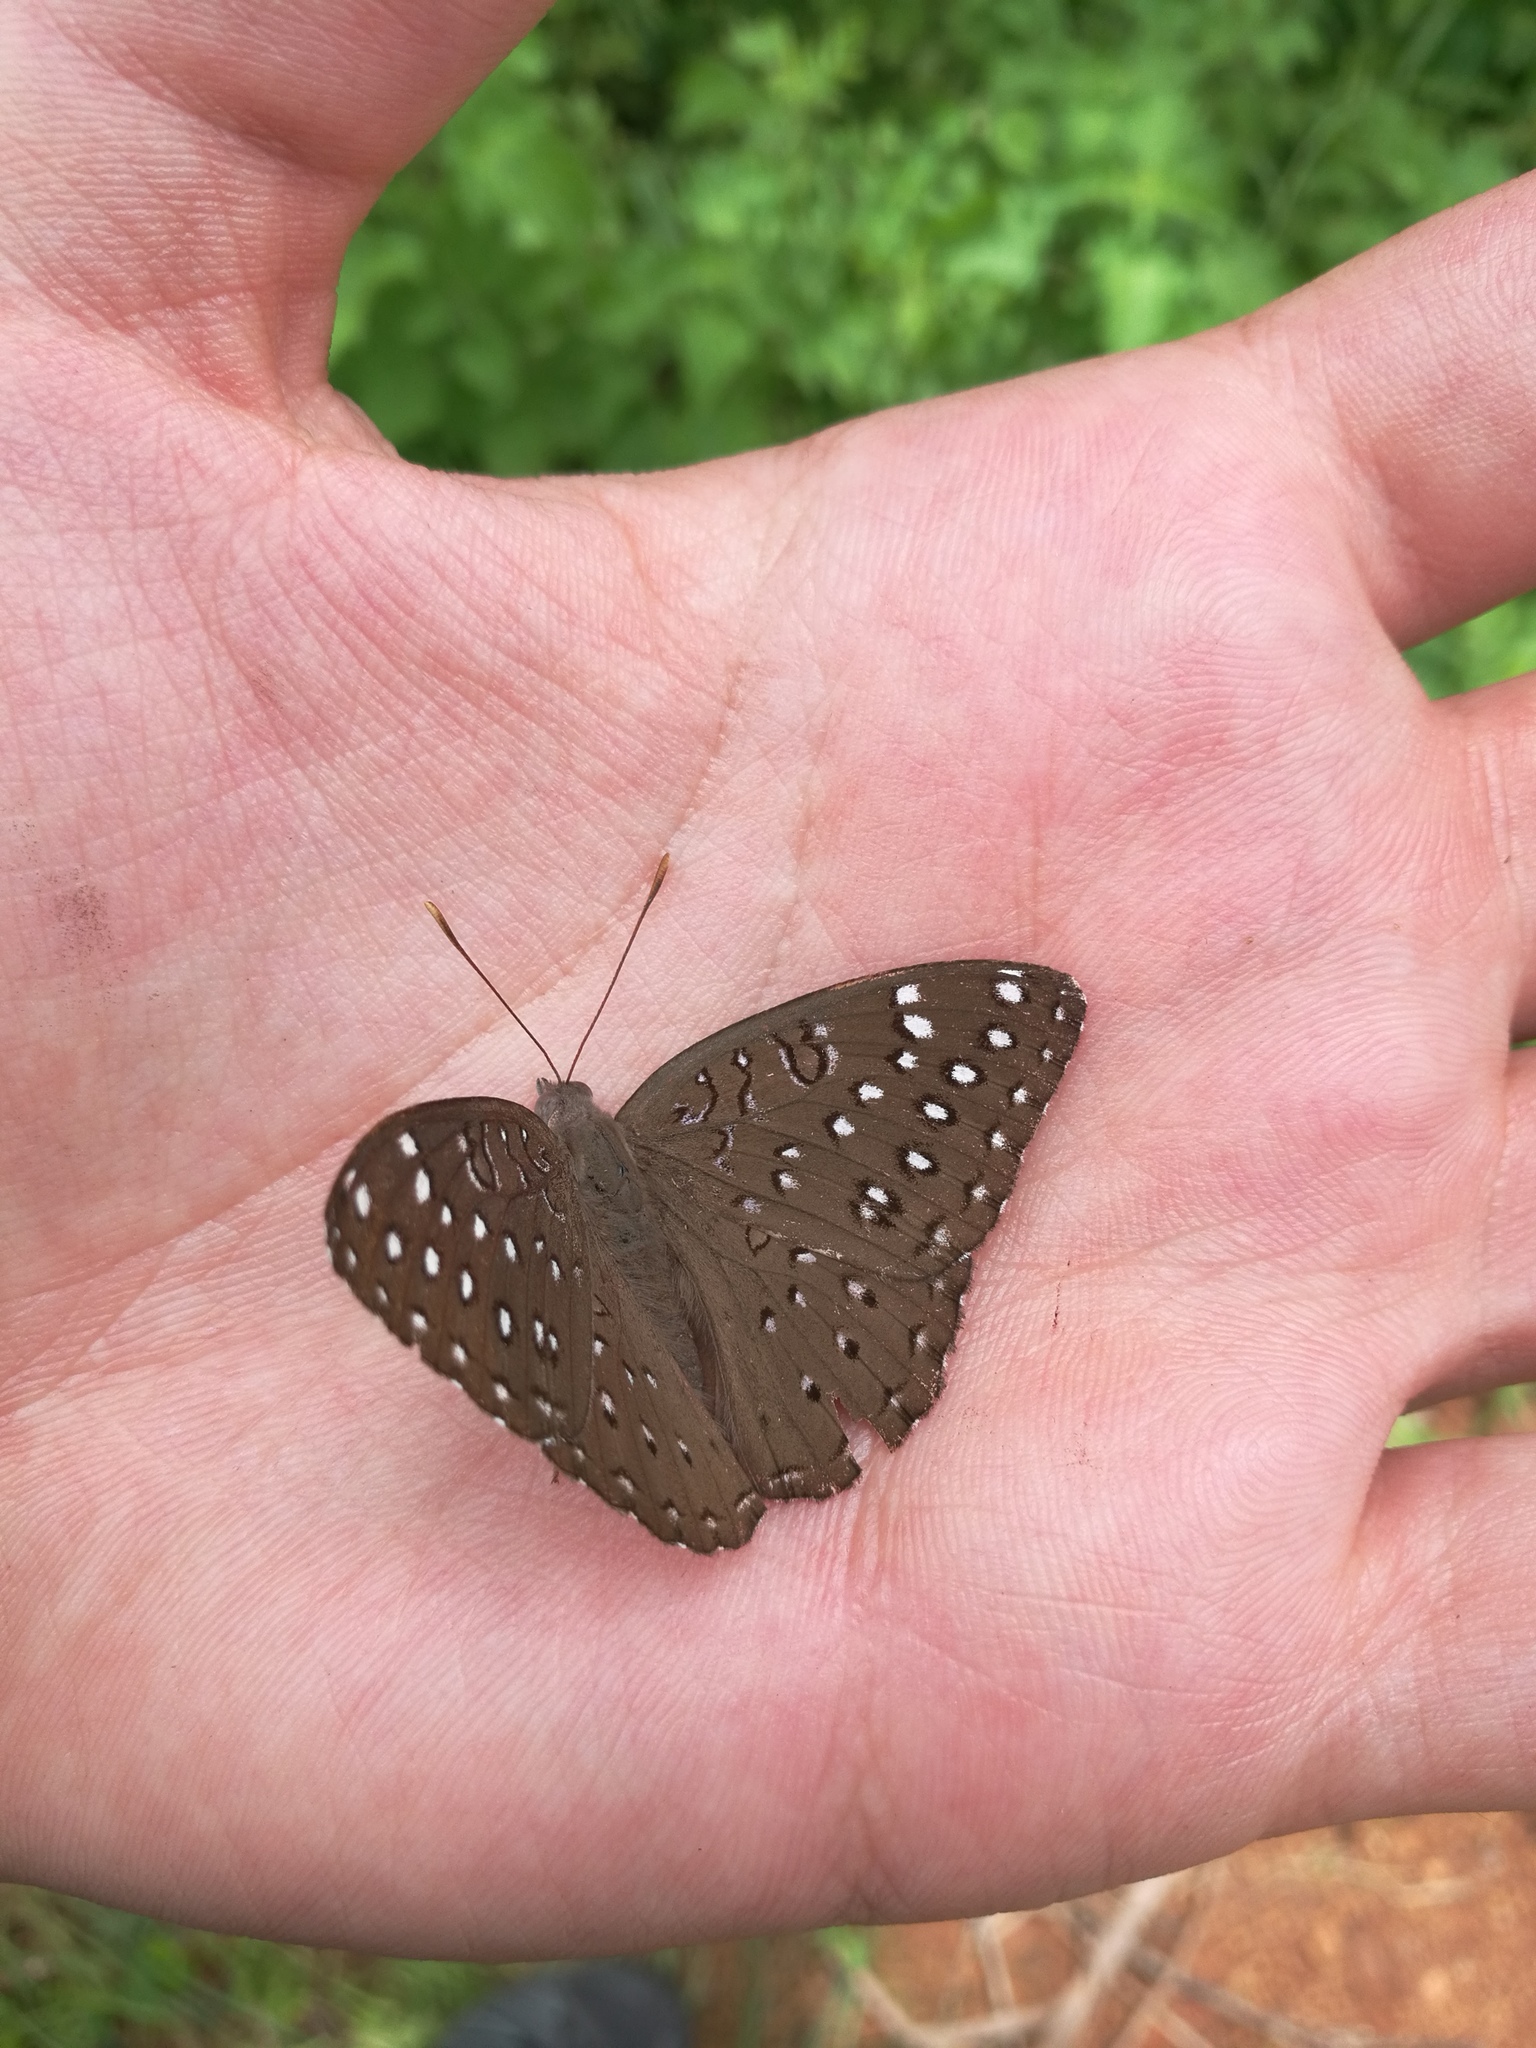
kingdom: Animalia
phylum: Arthropoda
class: Insecta
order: Lepidoptera
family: Nymphalidae
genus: Hamanumida
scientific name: Hamanumida daedalus
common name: Guinea-fowl butterfly
